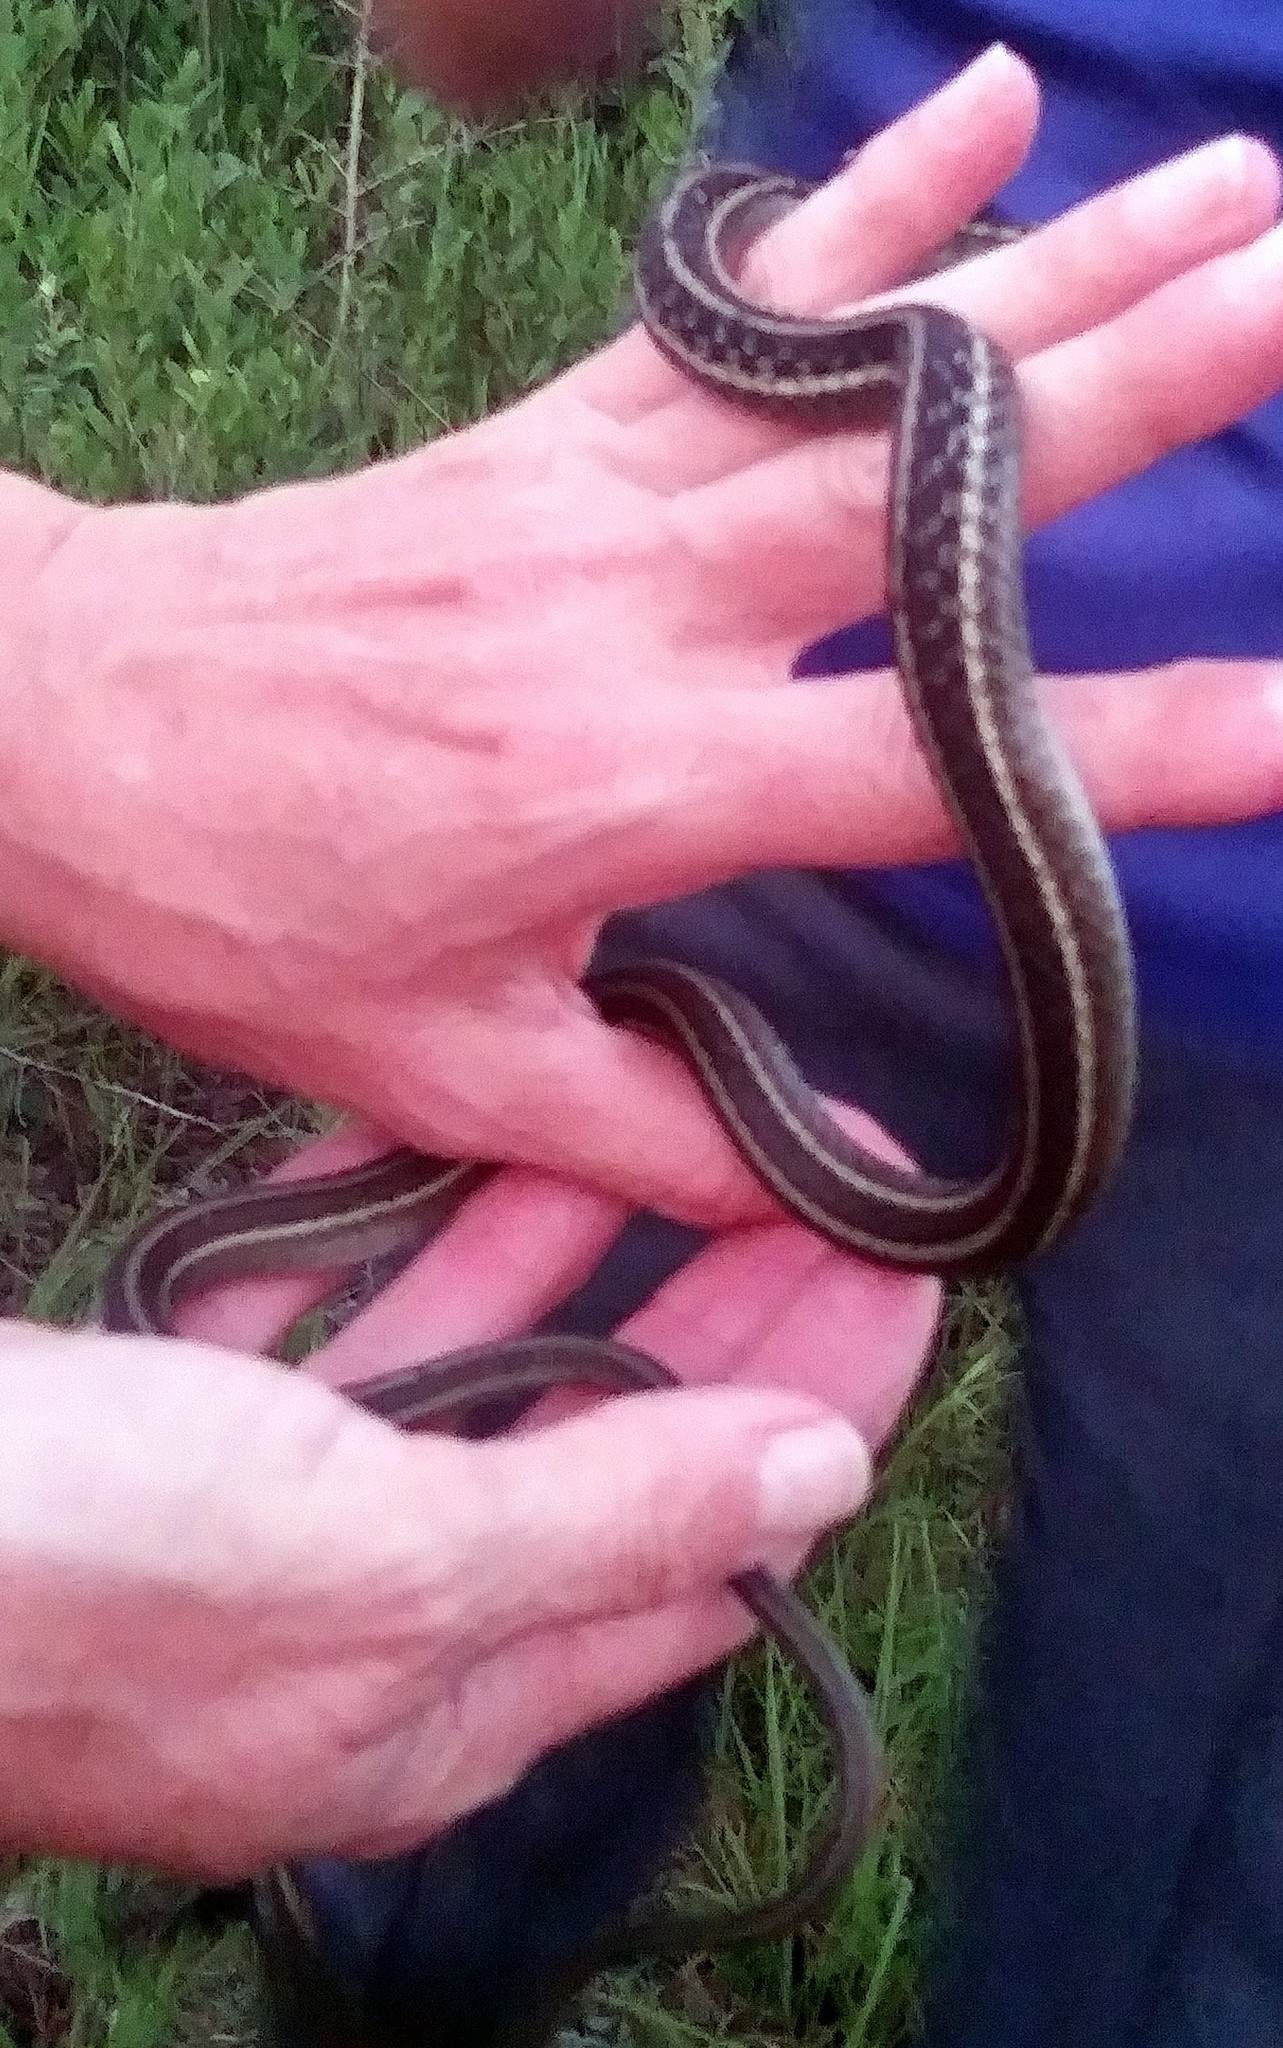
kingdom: Animalia
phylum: Chordata
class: Squamata
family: Colubridae
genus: Thamnophis
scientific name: Thamnophis saurita
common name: Eastern ribbonsnake
